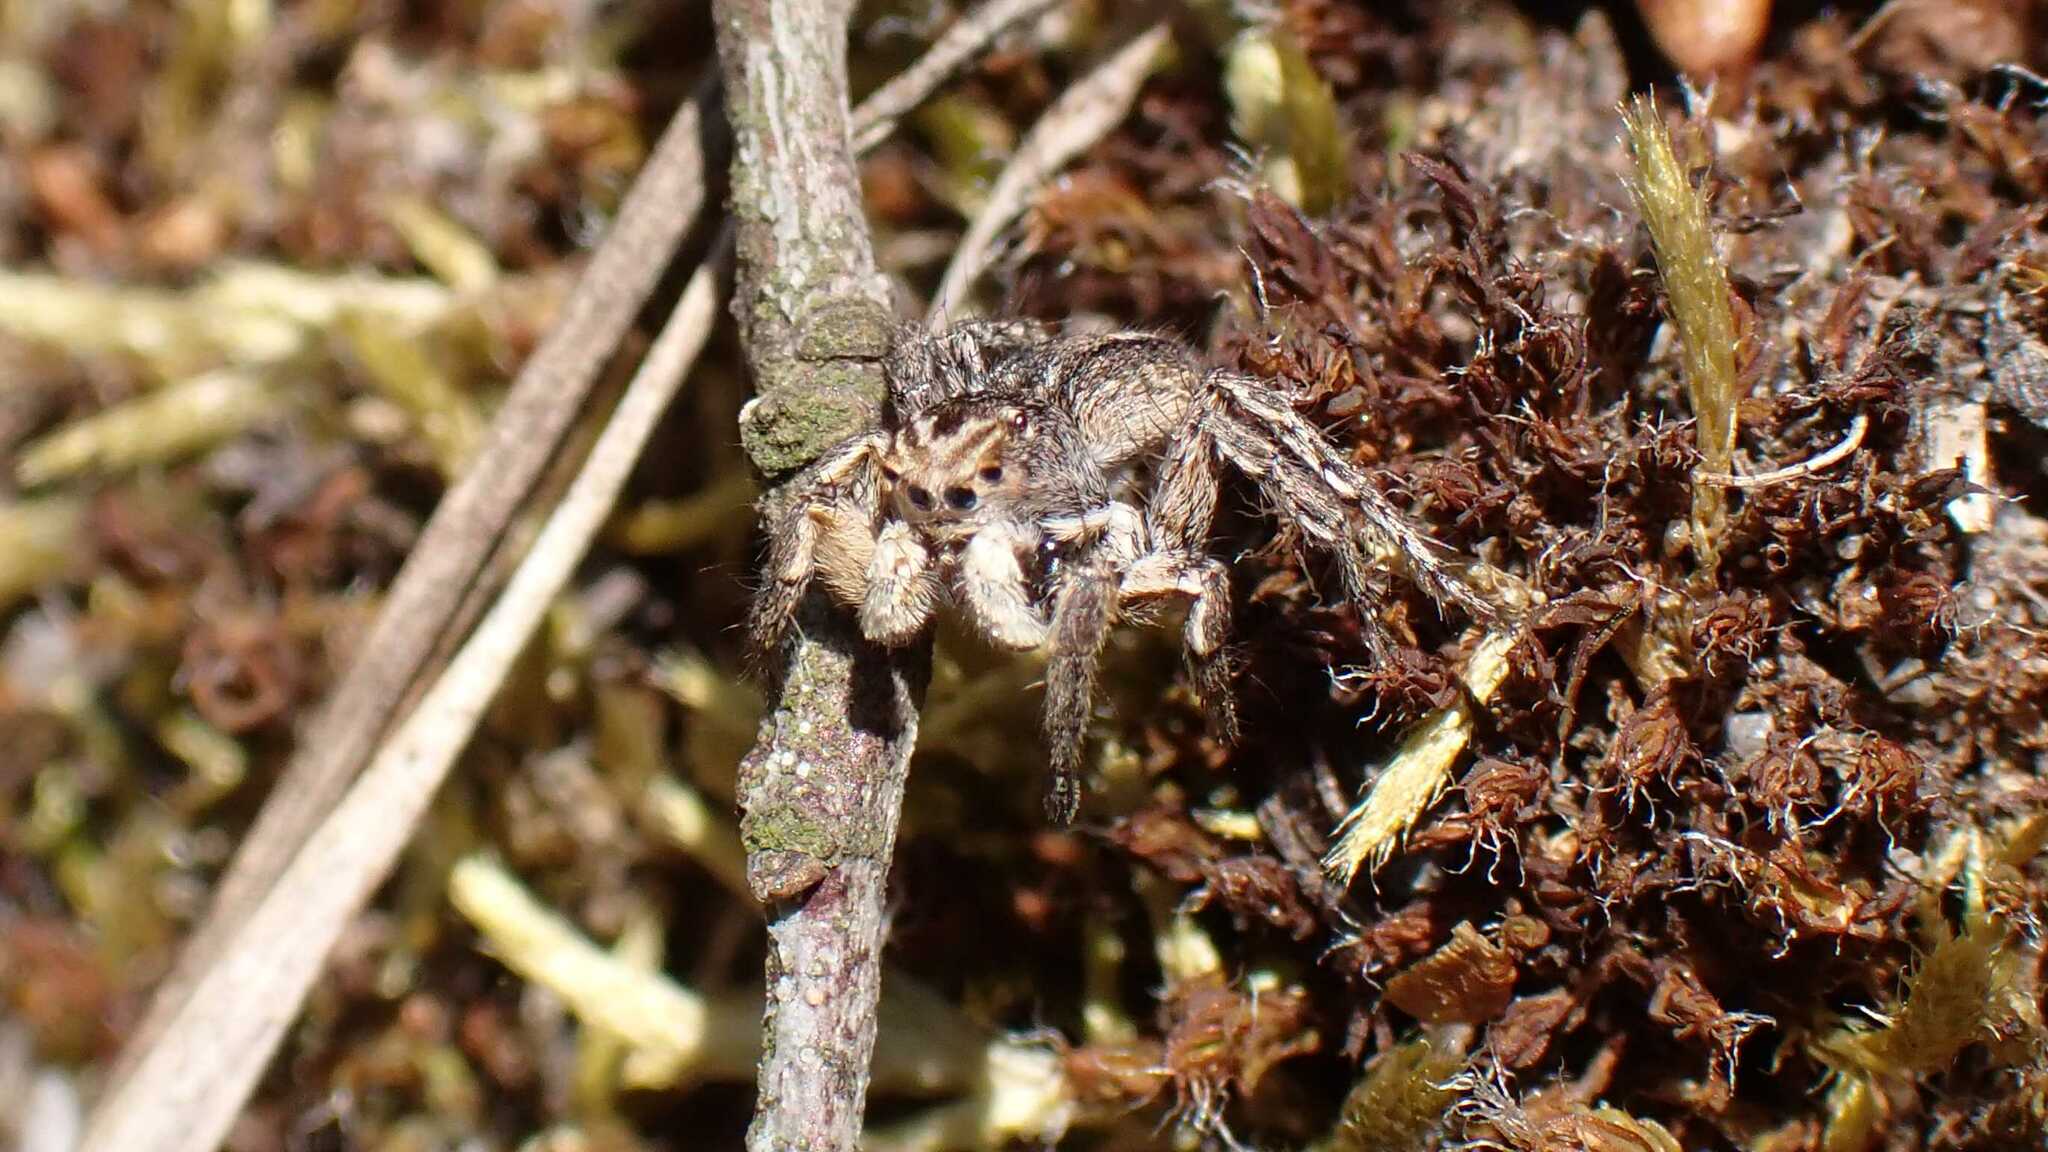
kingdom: Animalia
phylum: Arthropoda
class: Arachnida
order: Araneae
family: Salticidae
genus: Aelurillus
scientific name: Aelurillus v-insignitus
